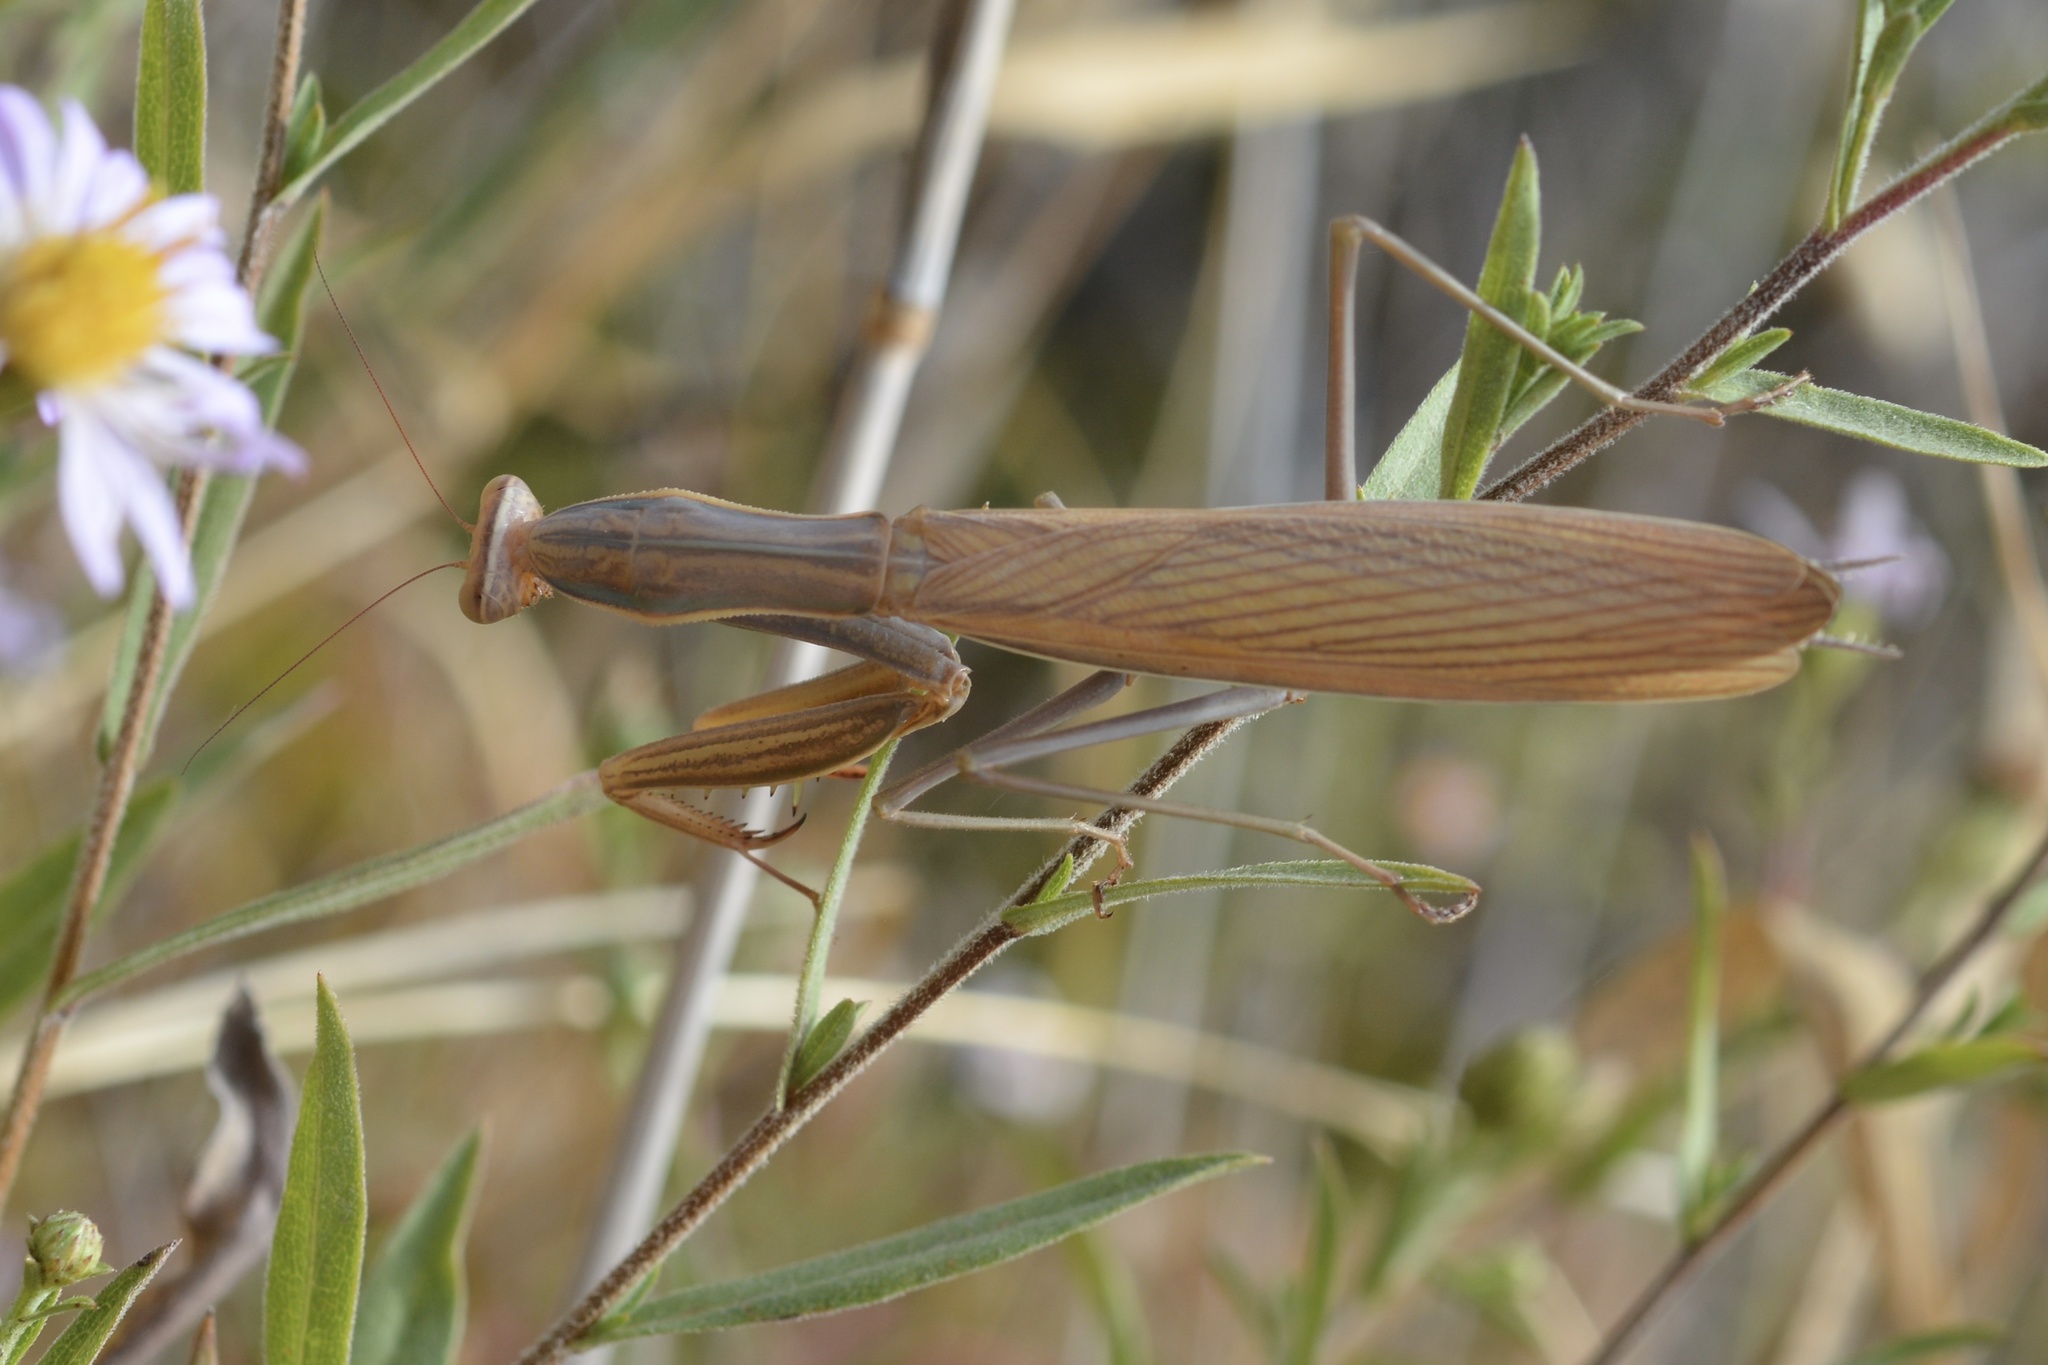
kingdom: Animalia
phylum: Arthropoda
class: Insecta
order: Mantodea
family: Mantidae
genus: Mantis
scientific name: Mantis religiosa
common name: Praying mantis
